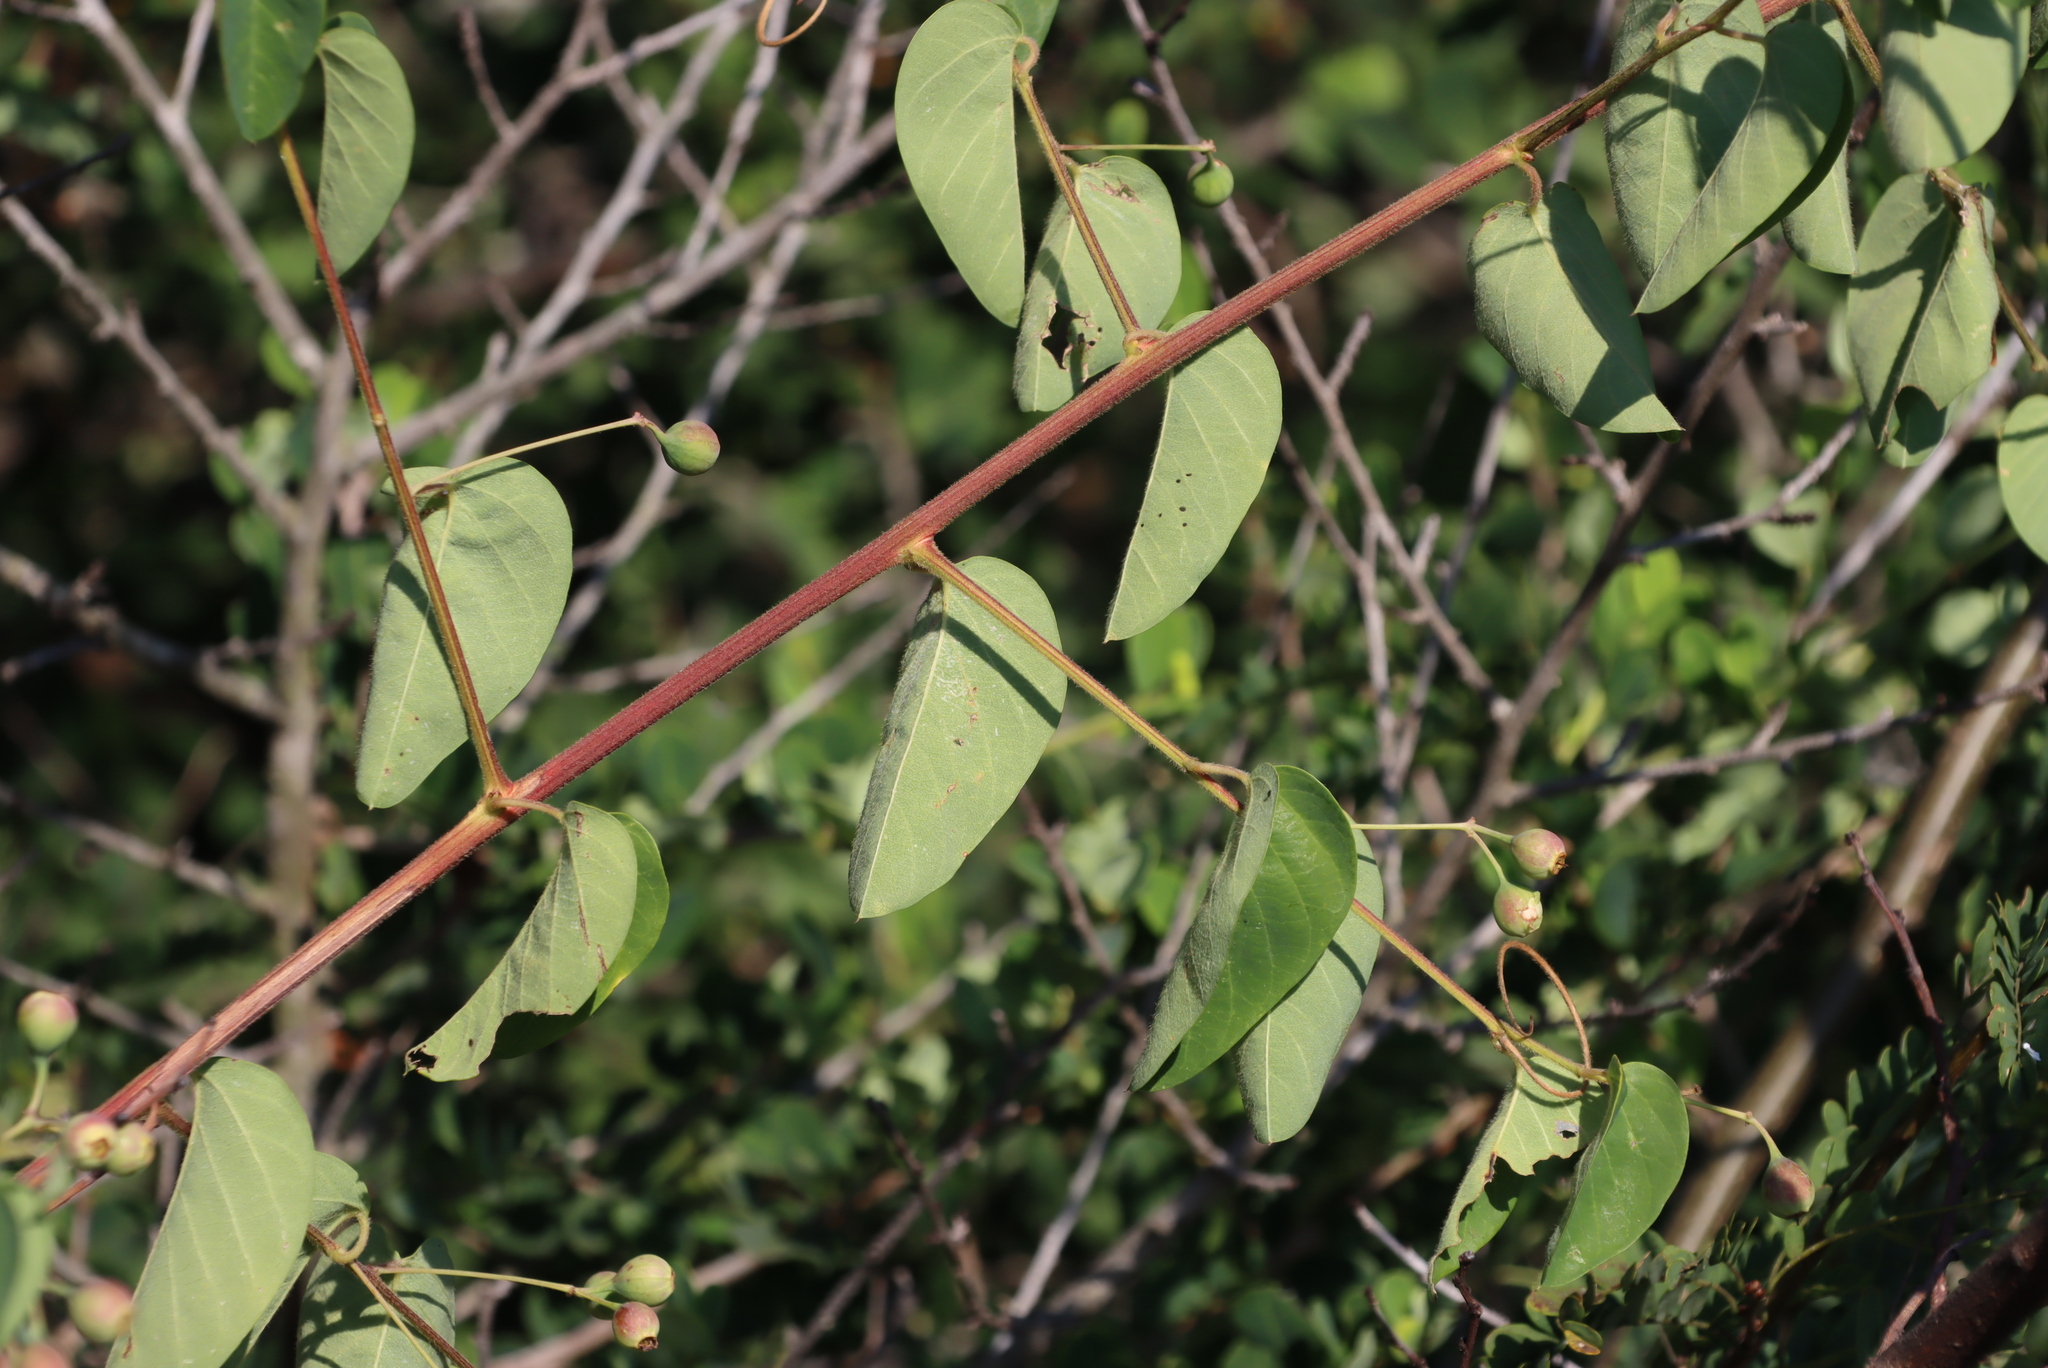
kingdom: Plantae
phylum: Tracheophyta
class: Magnoliopsida
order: Rosales
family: Rhamnaceae
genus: Helinus
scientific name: Helinus integrifolius
